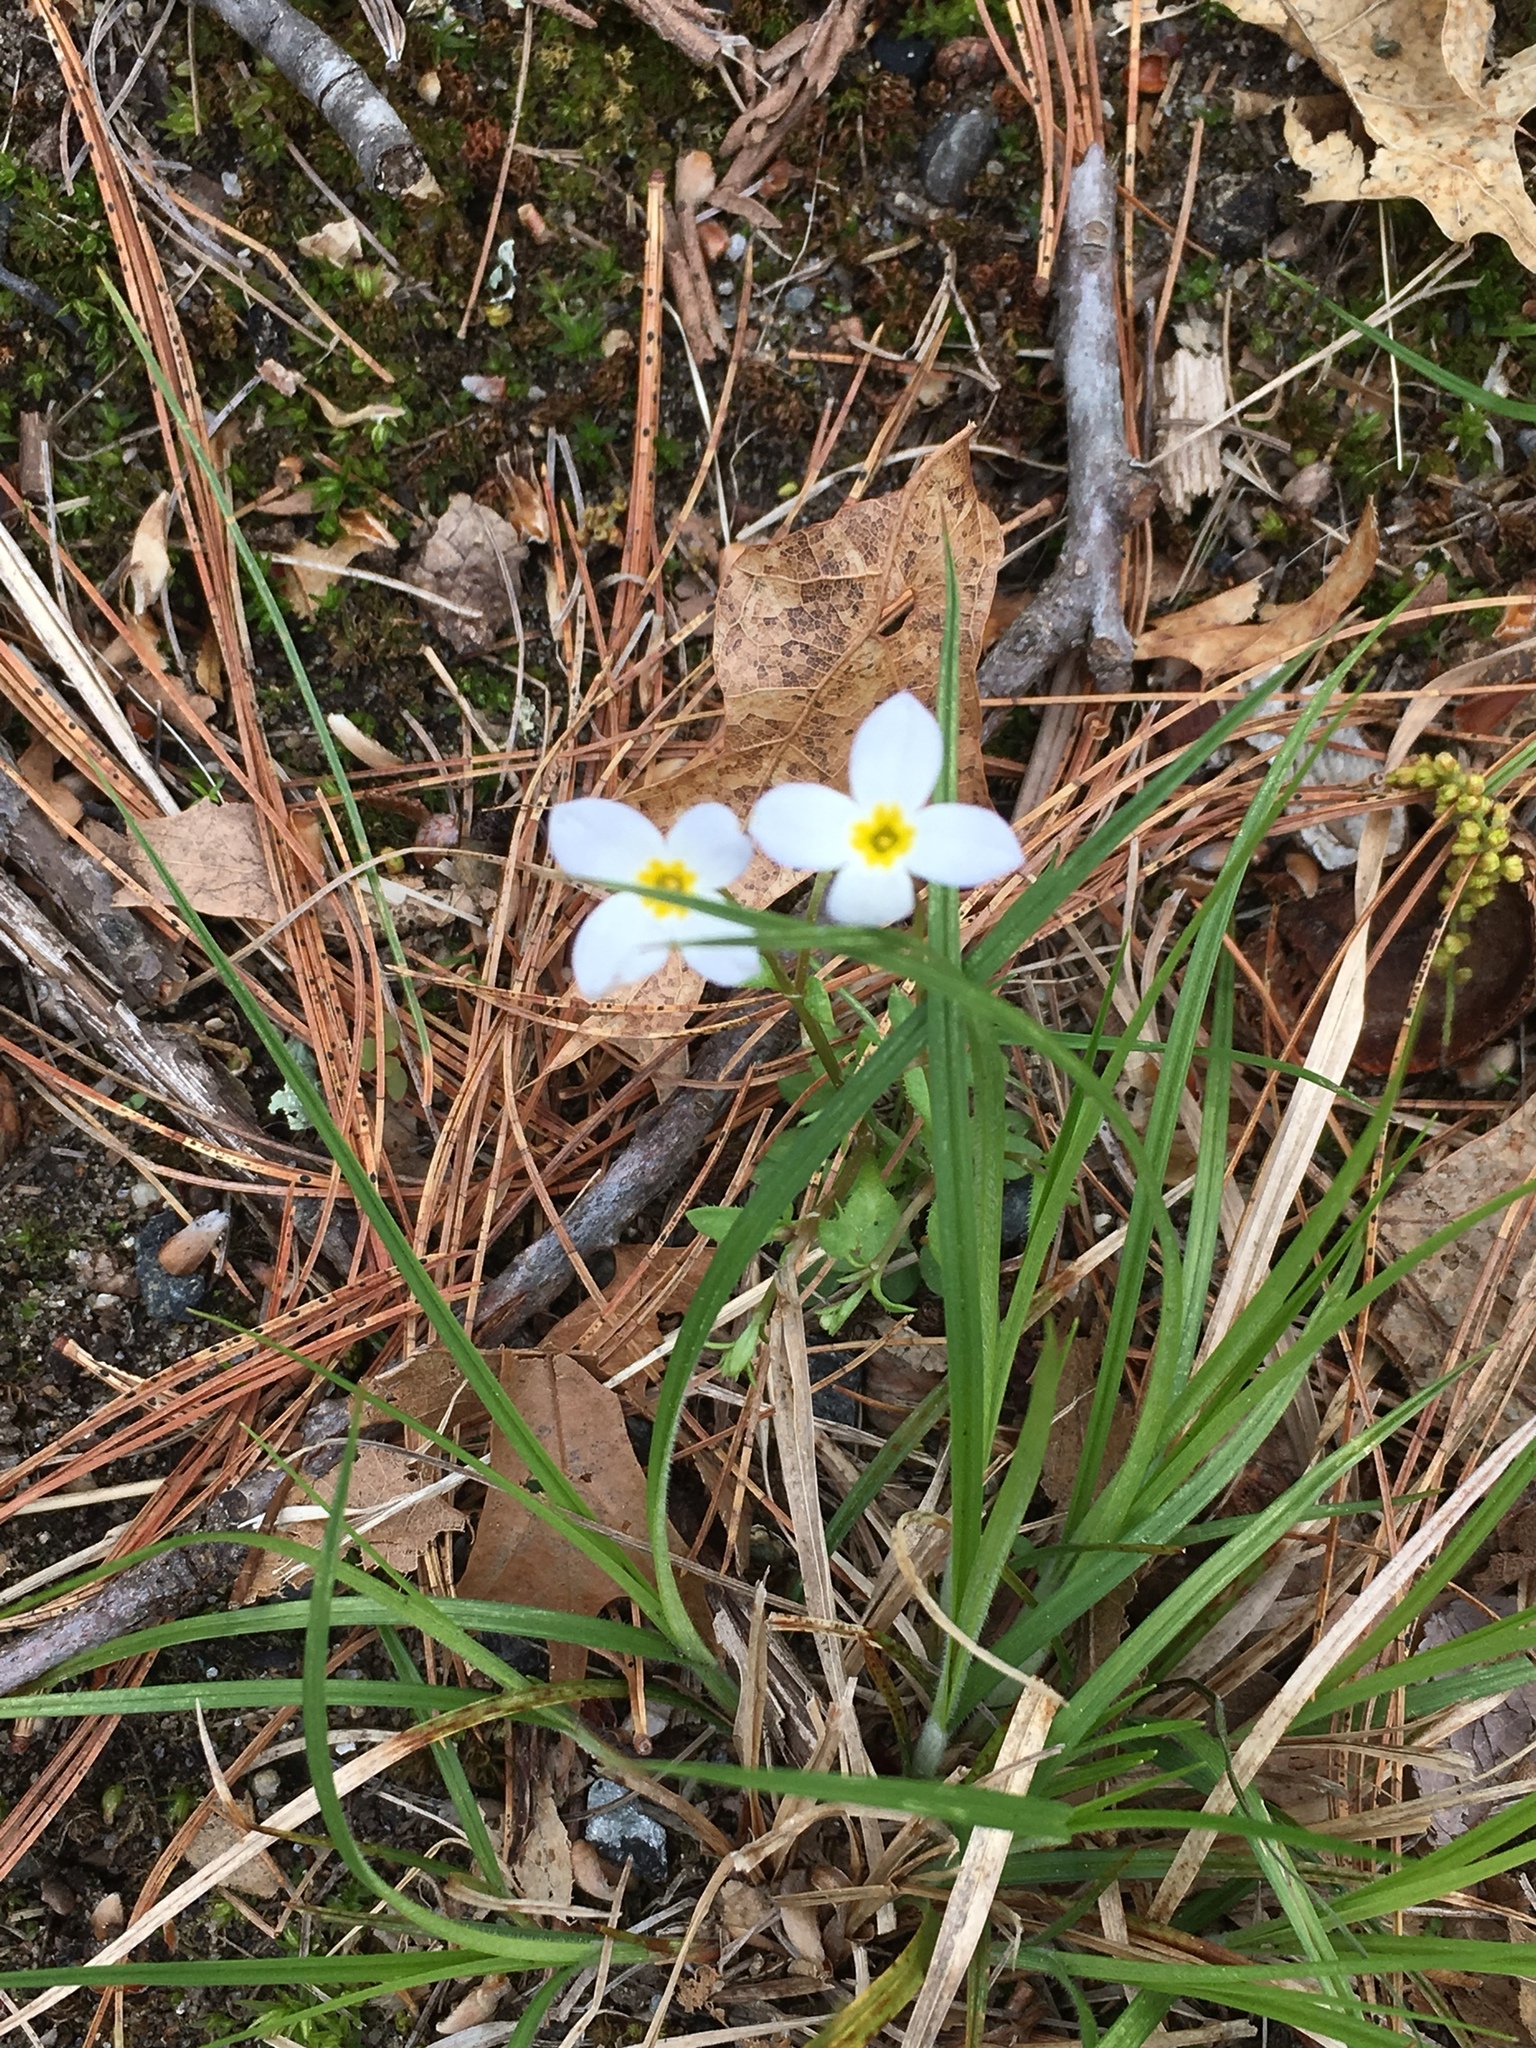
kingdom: Plantae
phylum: Tracheophyta
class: Magnoliopsida
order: Gentianales
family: Rubiaceae
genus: Houstonia
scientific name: Houstonia caerulea
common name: Bluets
